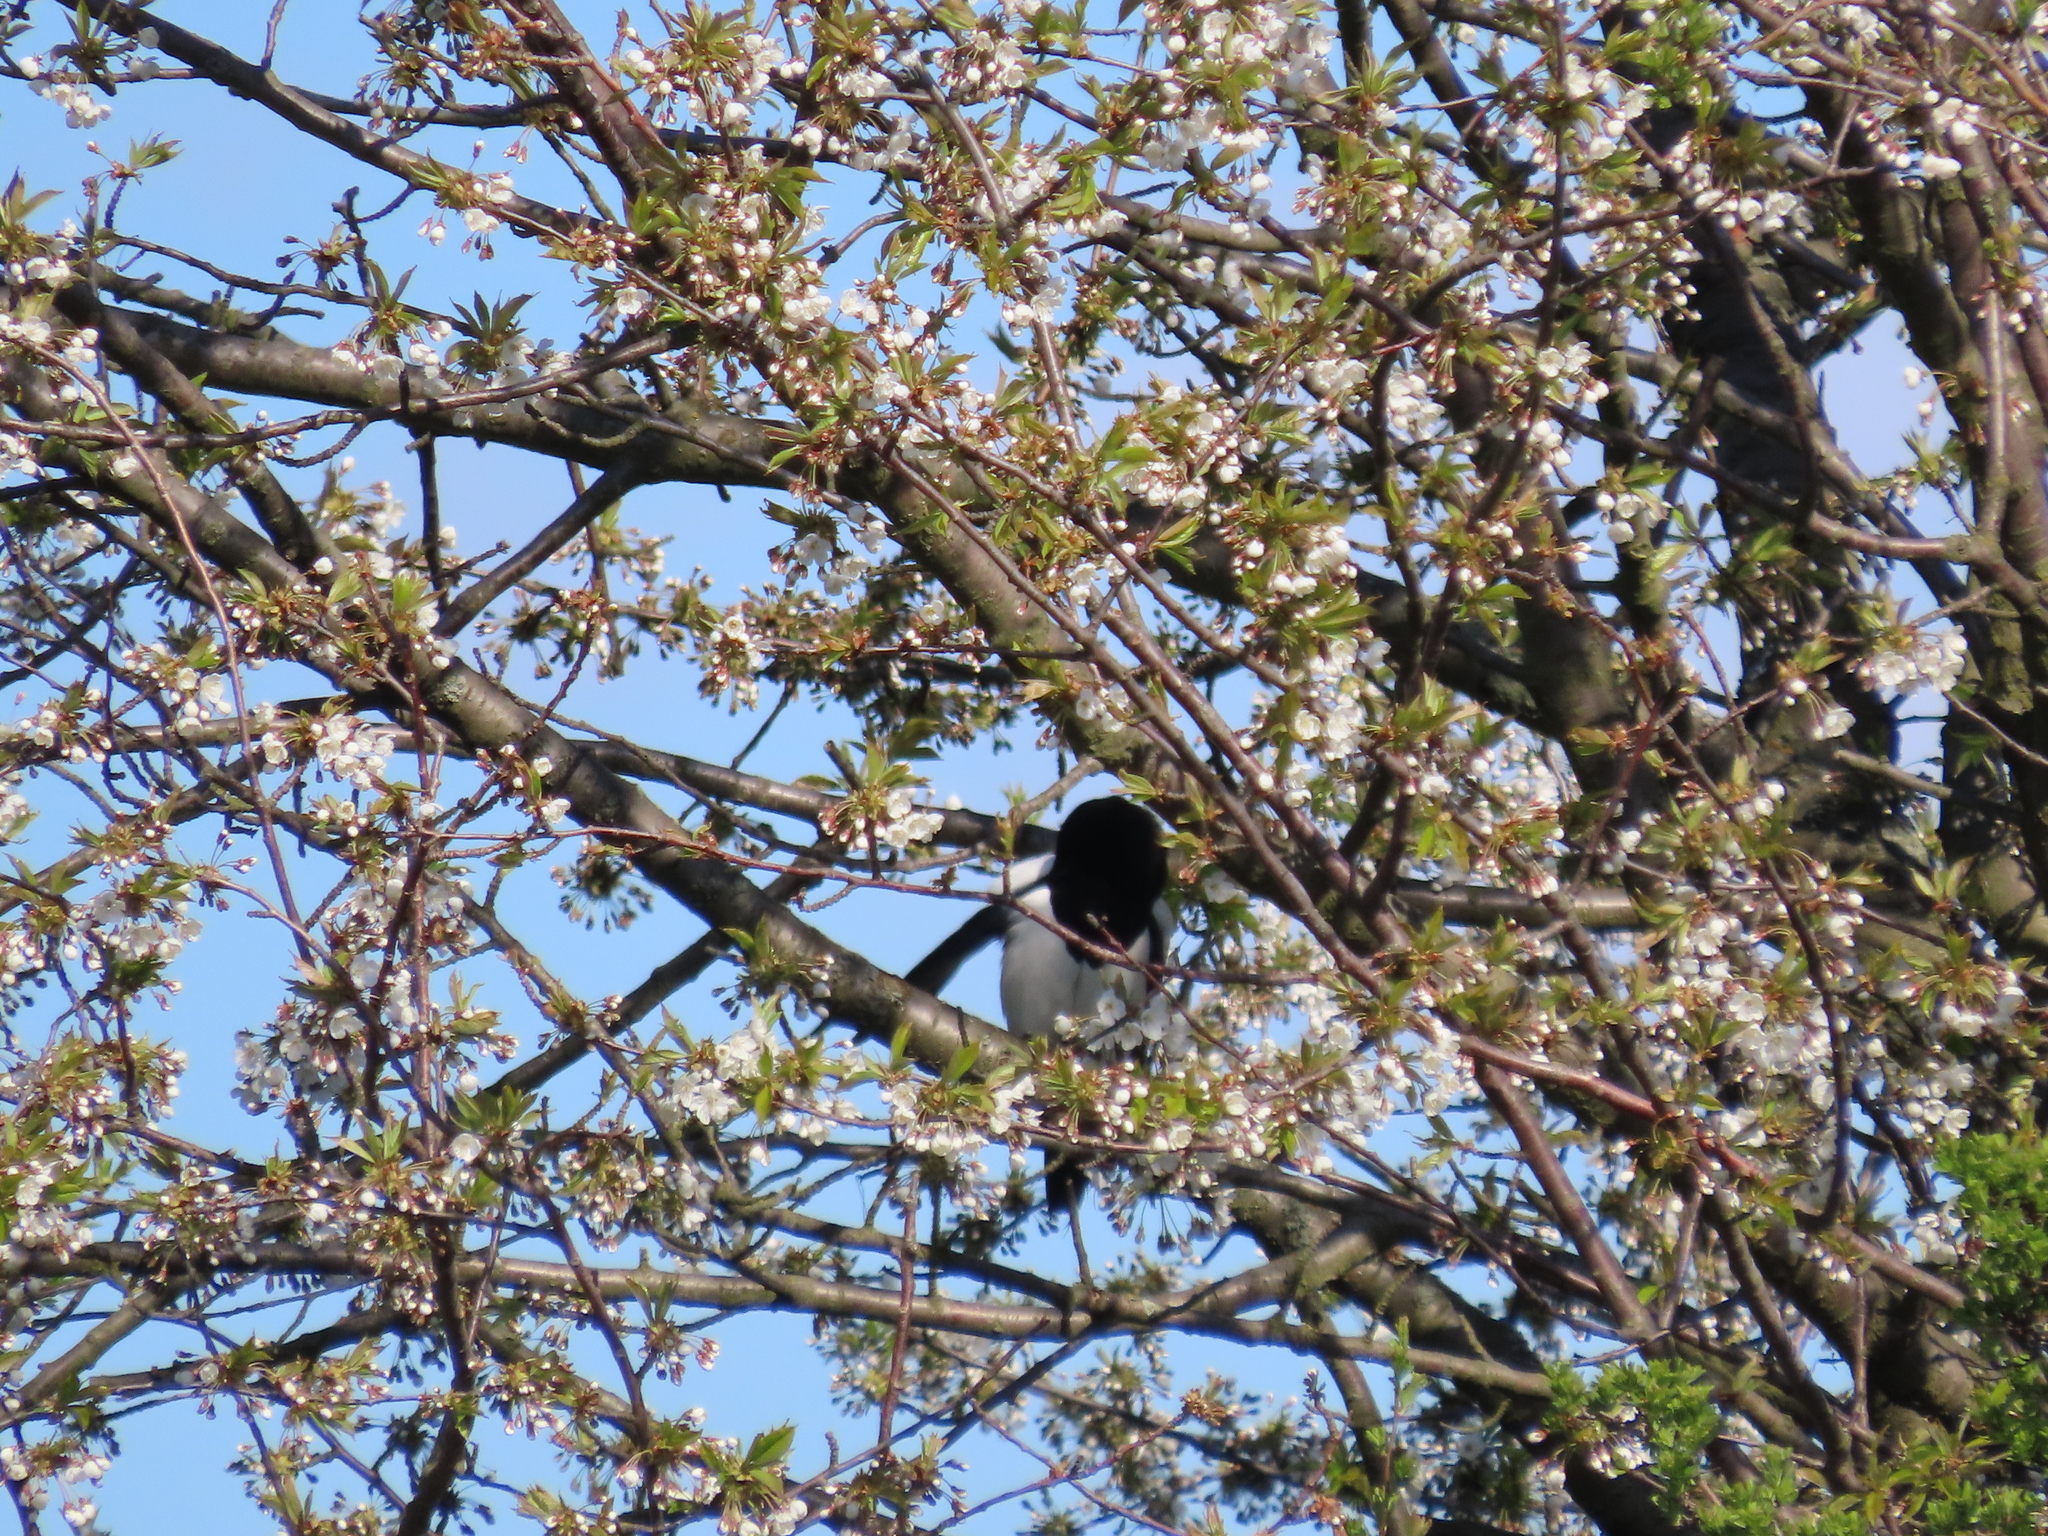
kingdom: Animalia
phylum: Chordata
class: Aves
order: Passeriformes
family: Corvidae
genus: Pica
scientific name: Pica pica
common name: Eurasian magpie
